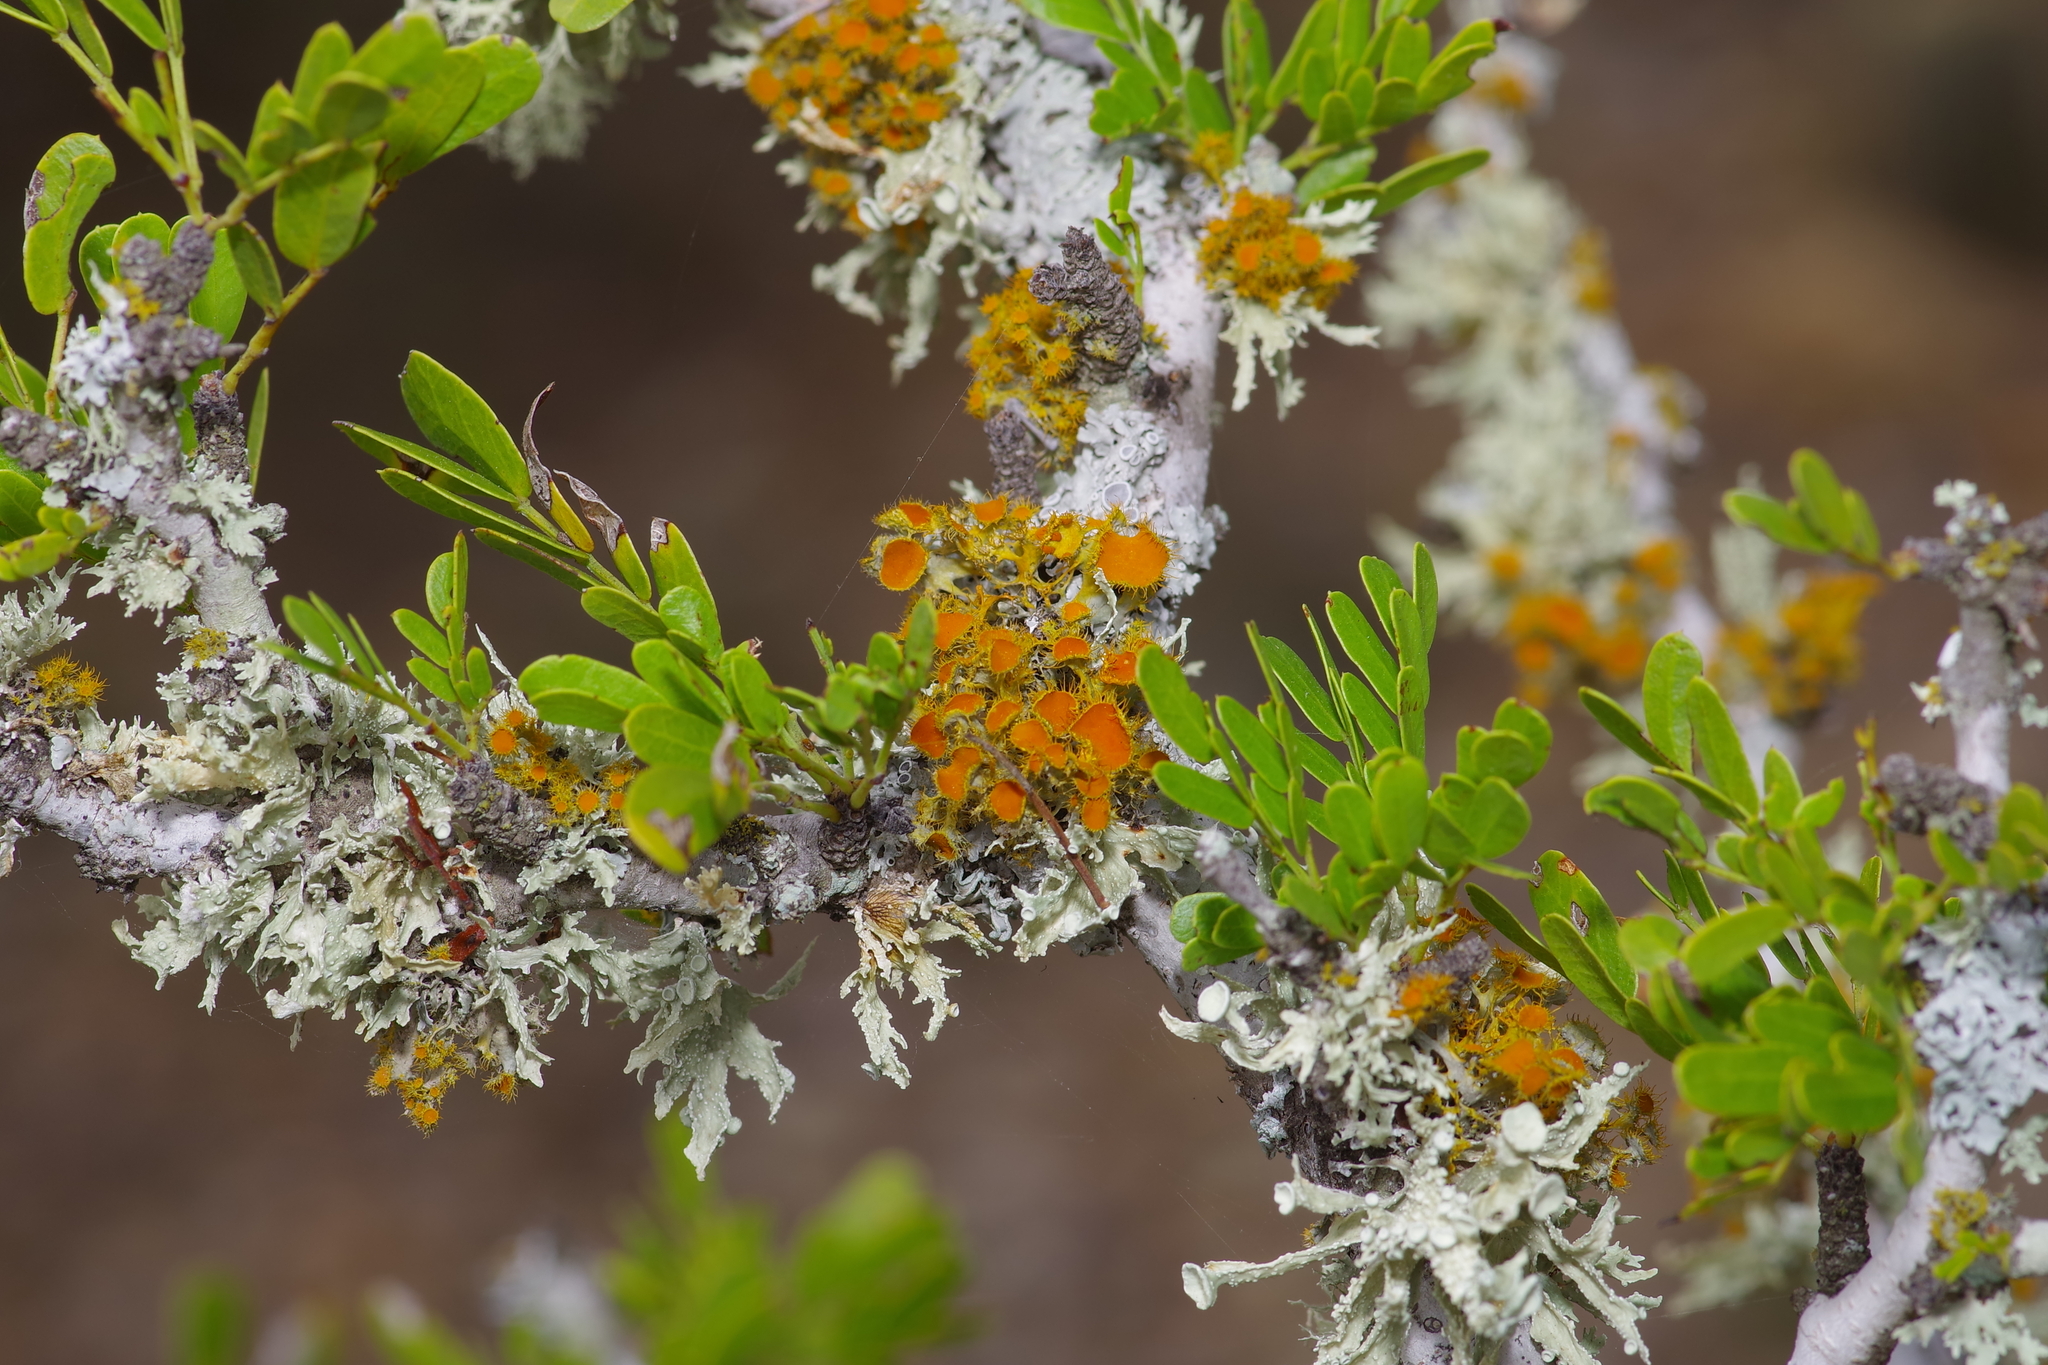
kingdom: Fungi
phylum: Ascomycota
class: Lecanoromycetes
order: Teloschistales
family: Teloschistaceae
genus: Niorma
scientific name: Niorma chrysophthalma
